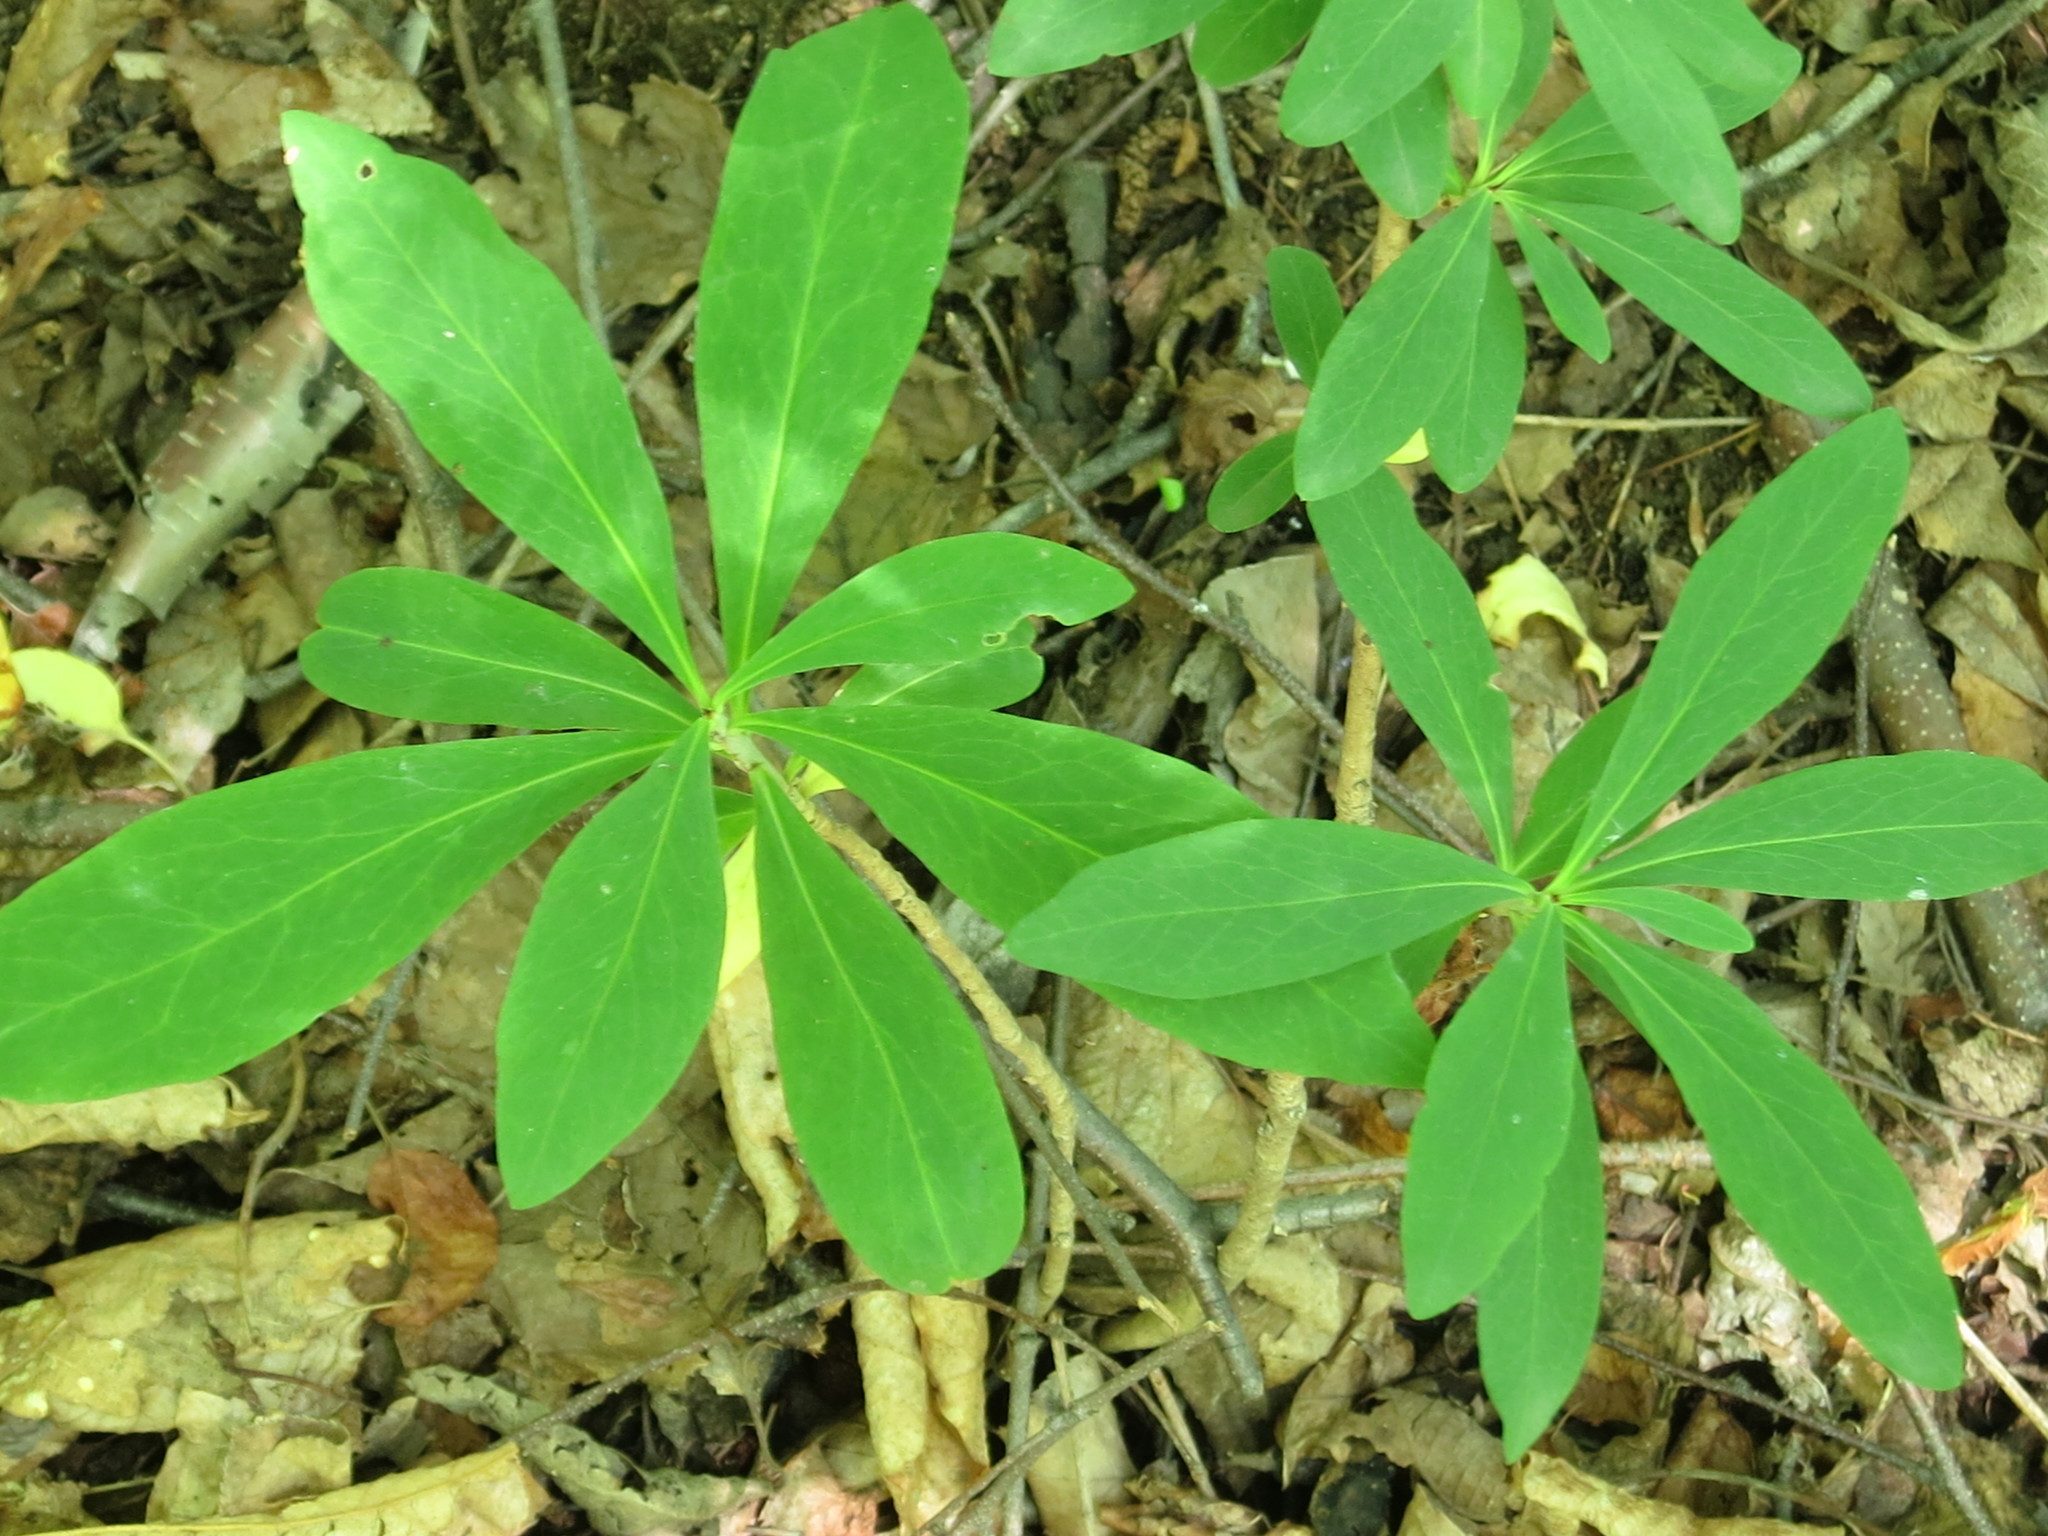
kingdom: Plantae
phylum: Tracheophyta
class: Magnoliopsida
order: Malvales
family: Thymelaeaceae
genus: Daphne
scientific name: Daphne kamtschatica
